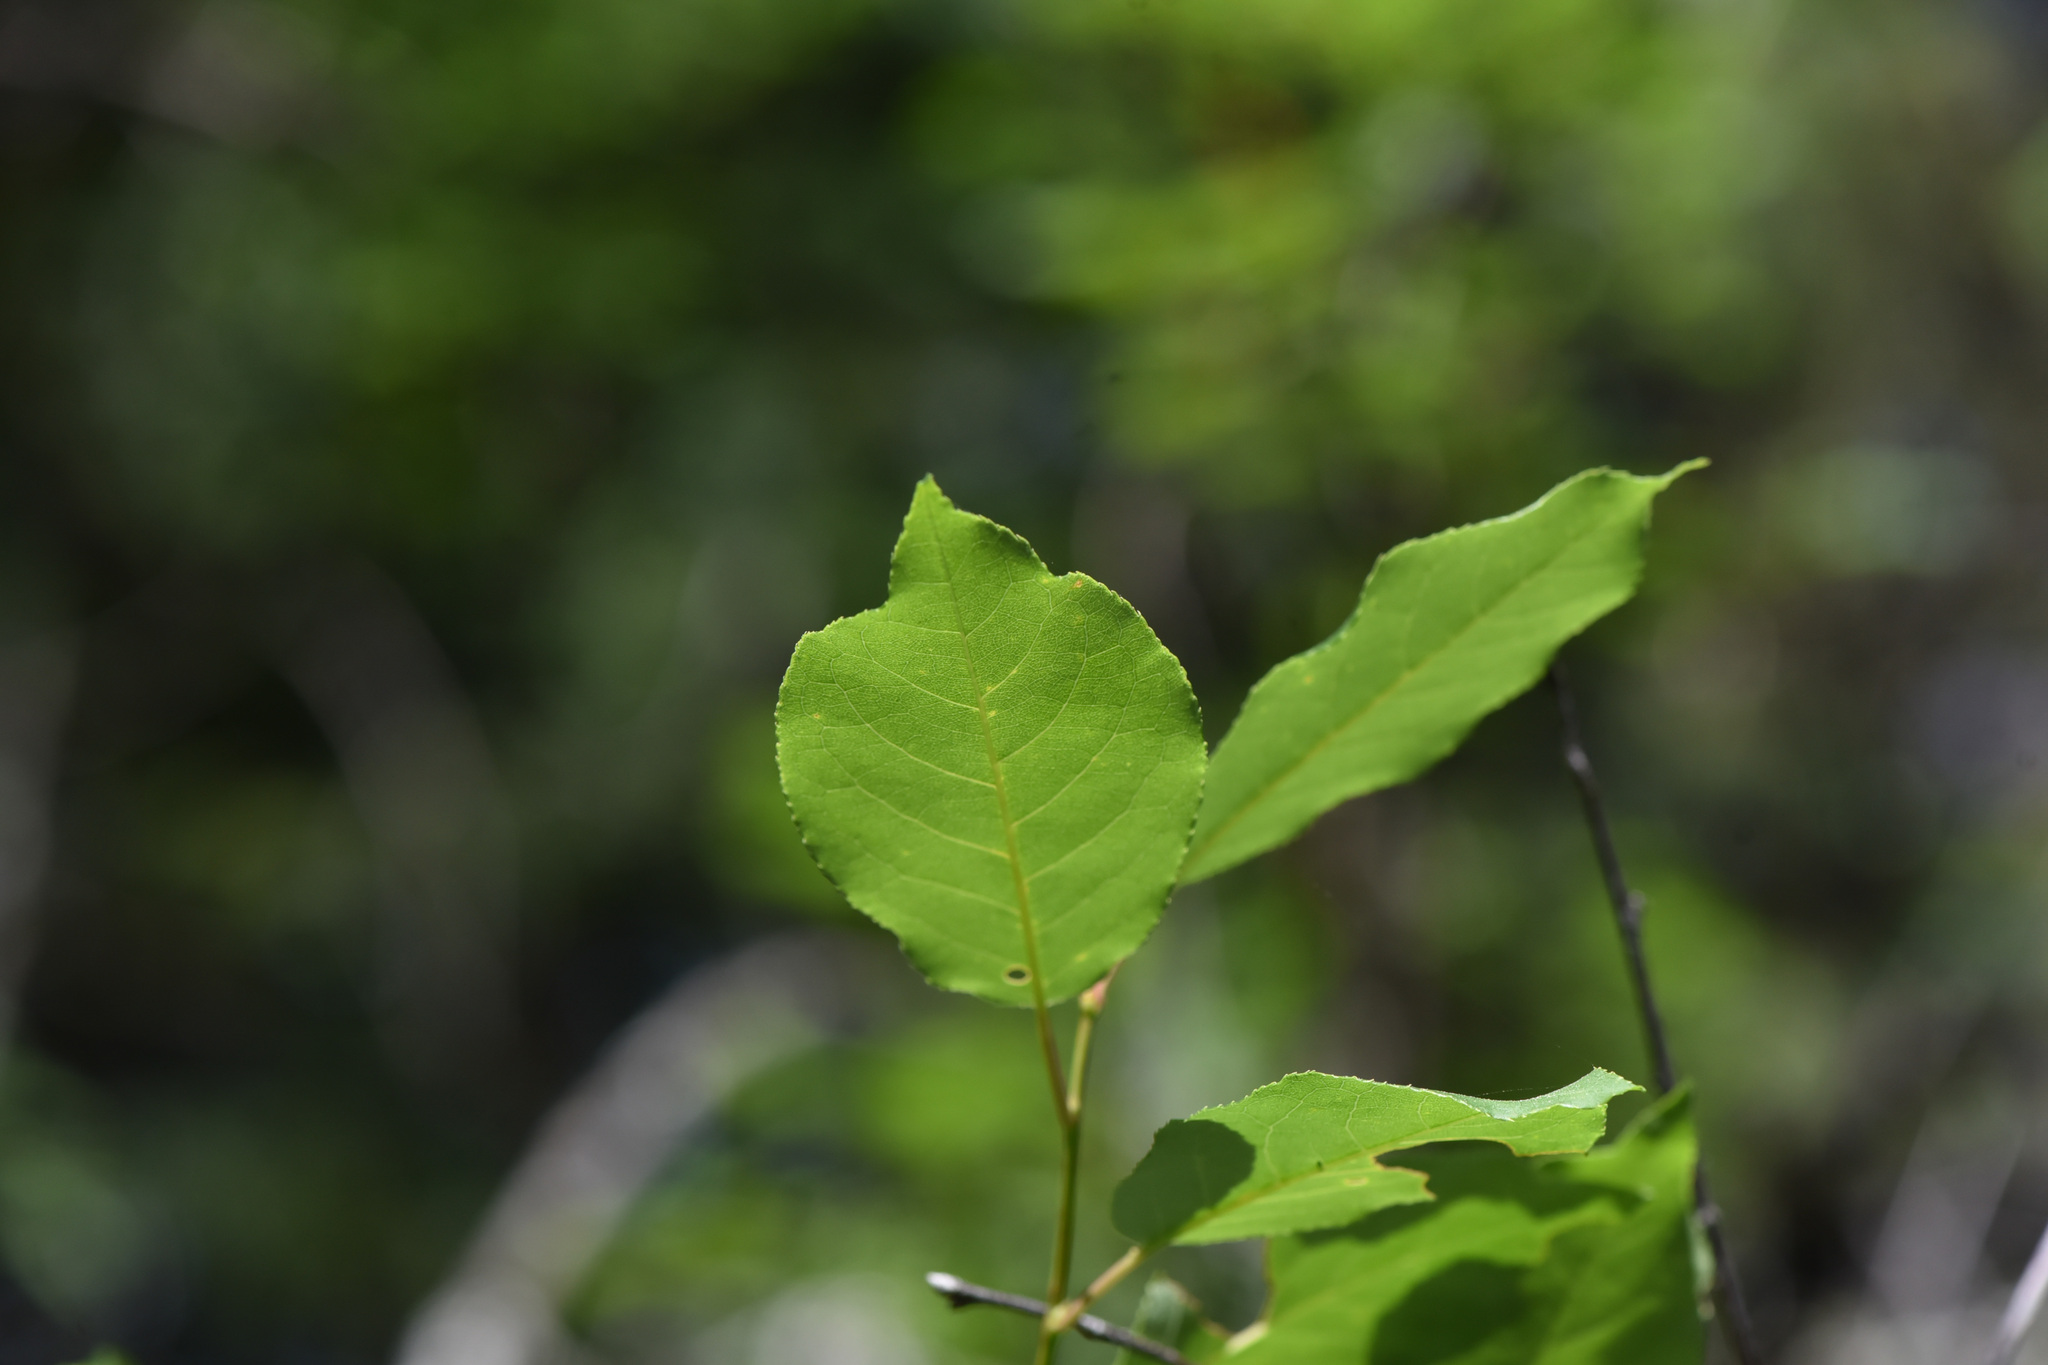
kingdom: Plantae
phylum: Tracheophyta
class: Magnoliopsida
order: Rosales
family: Rosaceae
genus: Prunus
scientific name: Prunus virginiana
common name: Chokecherry
